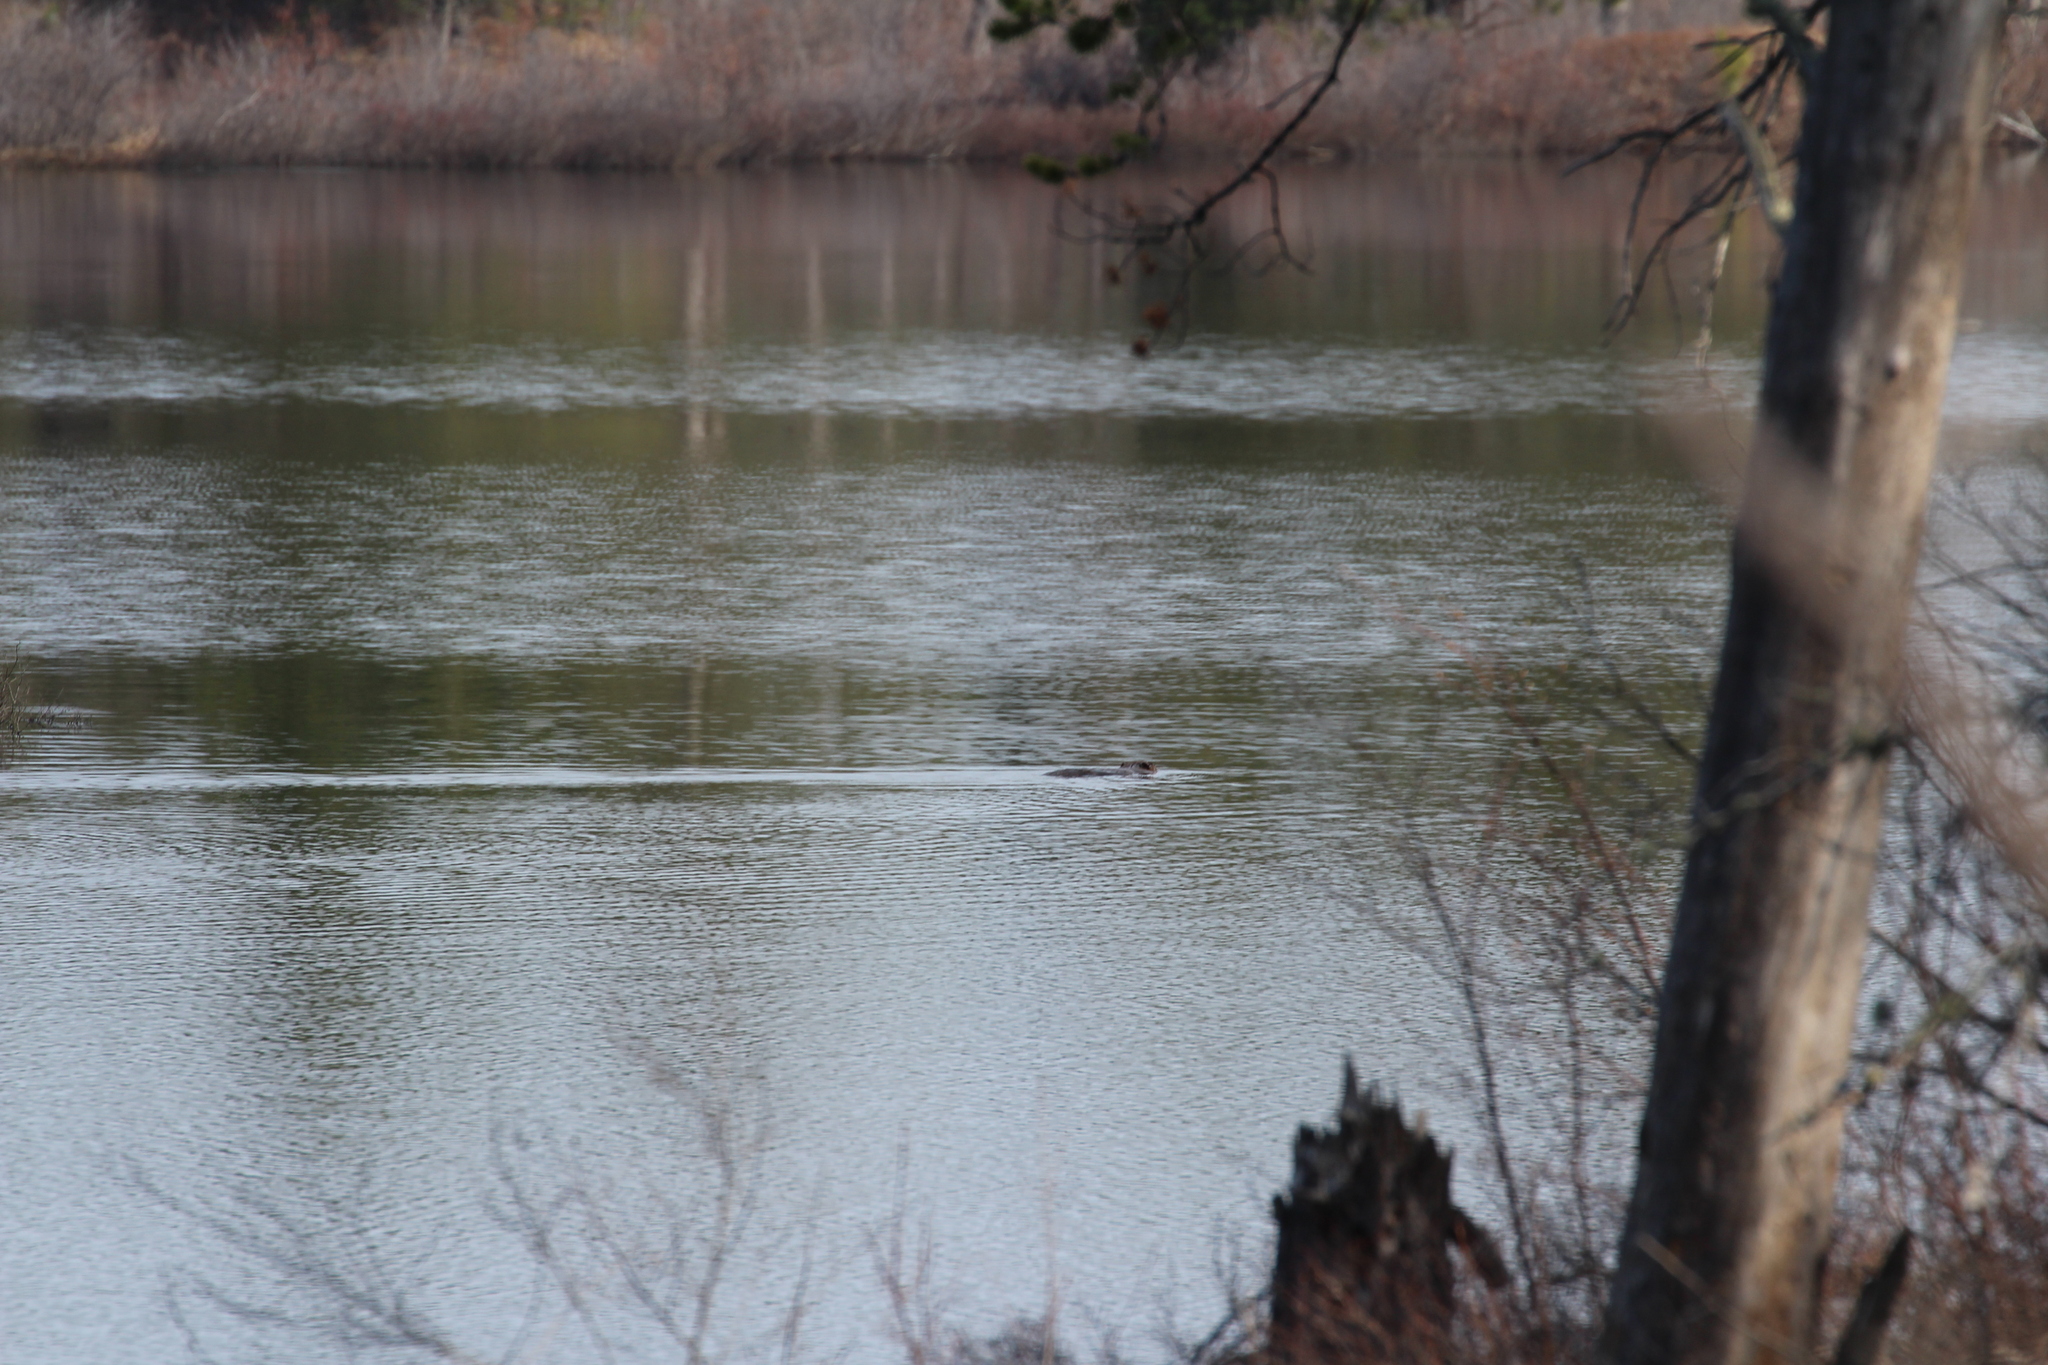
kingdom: Animalia
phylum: Chordata
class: Mammalia
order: Rodentia
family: Castoridae
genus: Castor
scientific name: Castor canadensis
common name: American beaver
